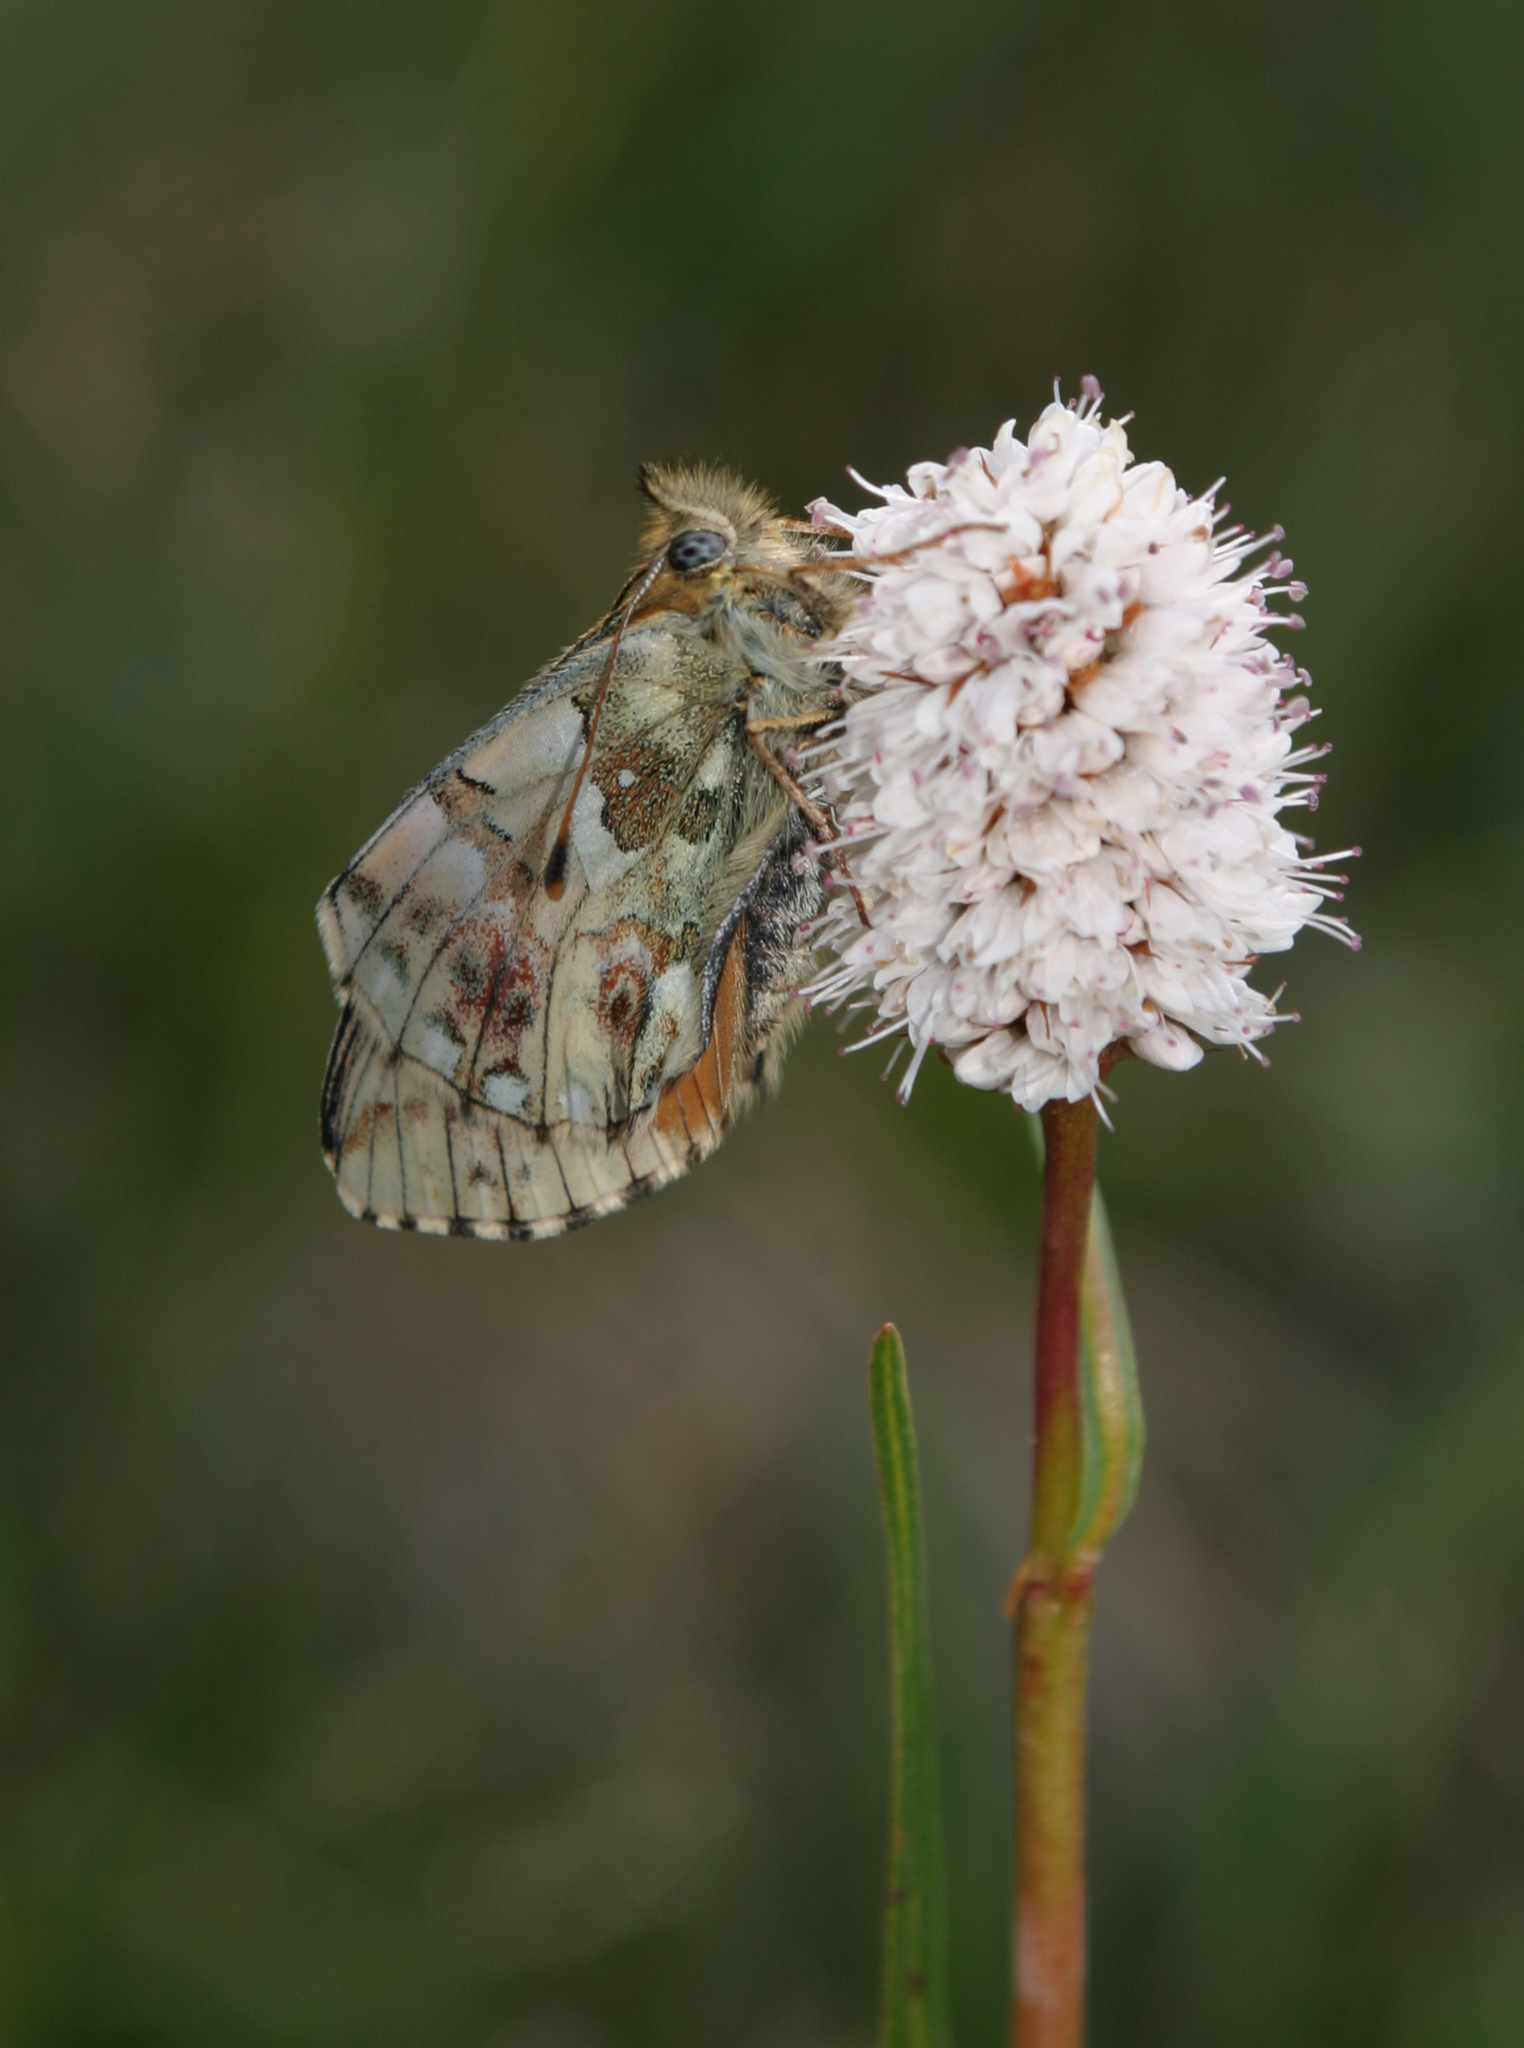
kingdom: Plantae
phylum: Tracheophyta
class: Magnoliopsida
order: Caryophyllales
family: Polygonaceae
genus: Bistorta
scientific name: Bistorta elliptica
